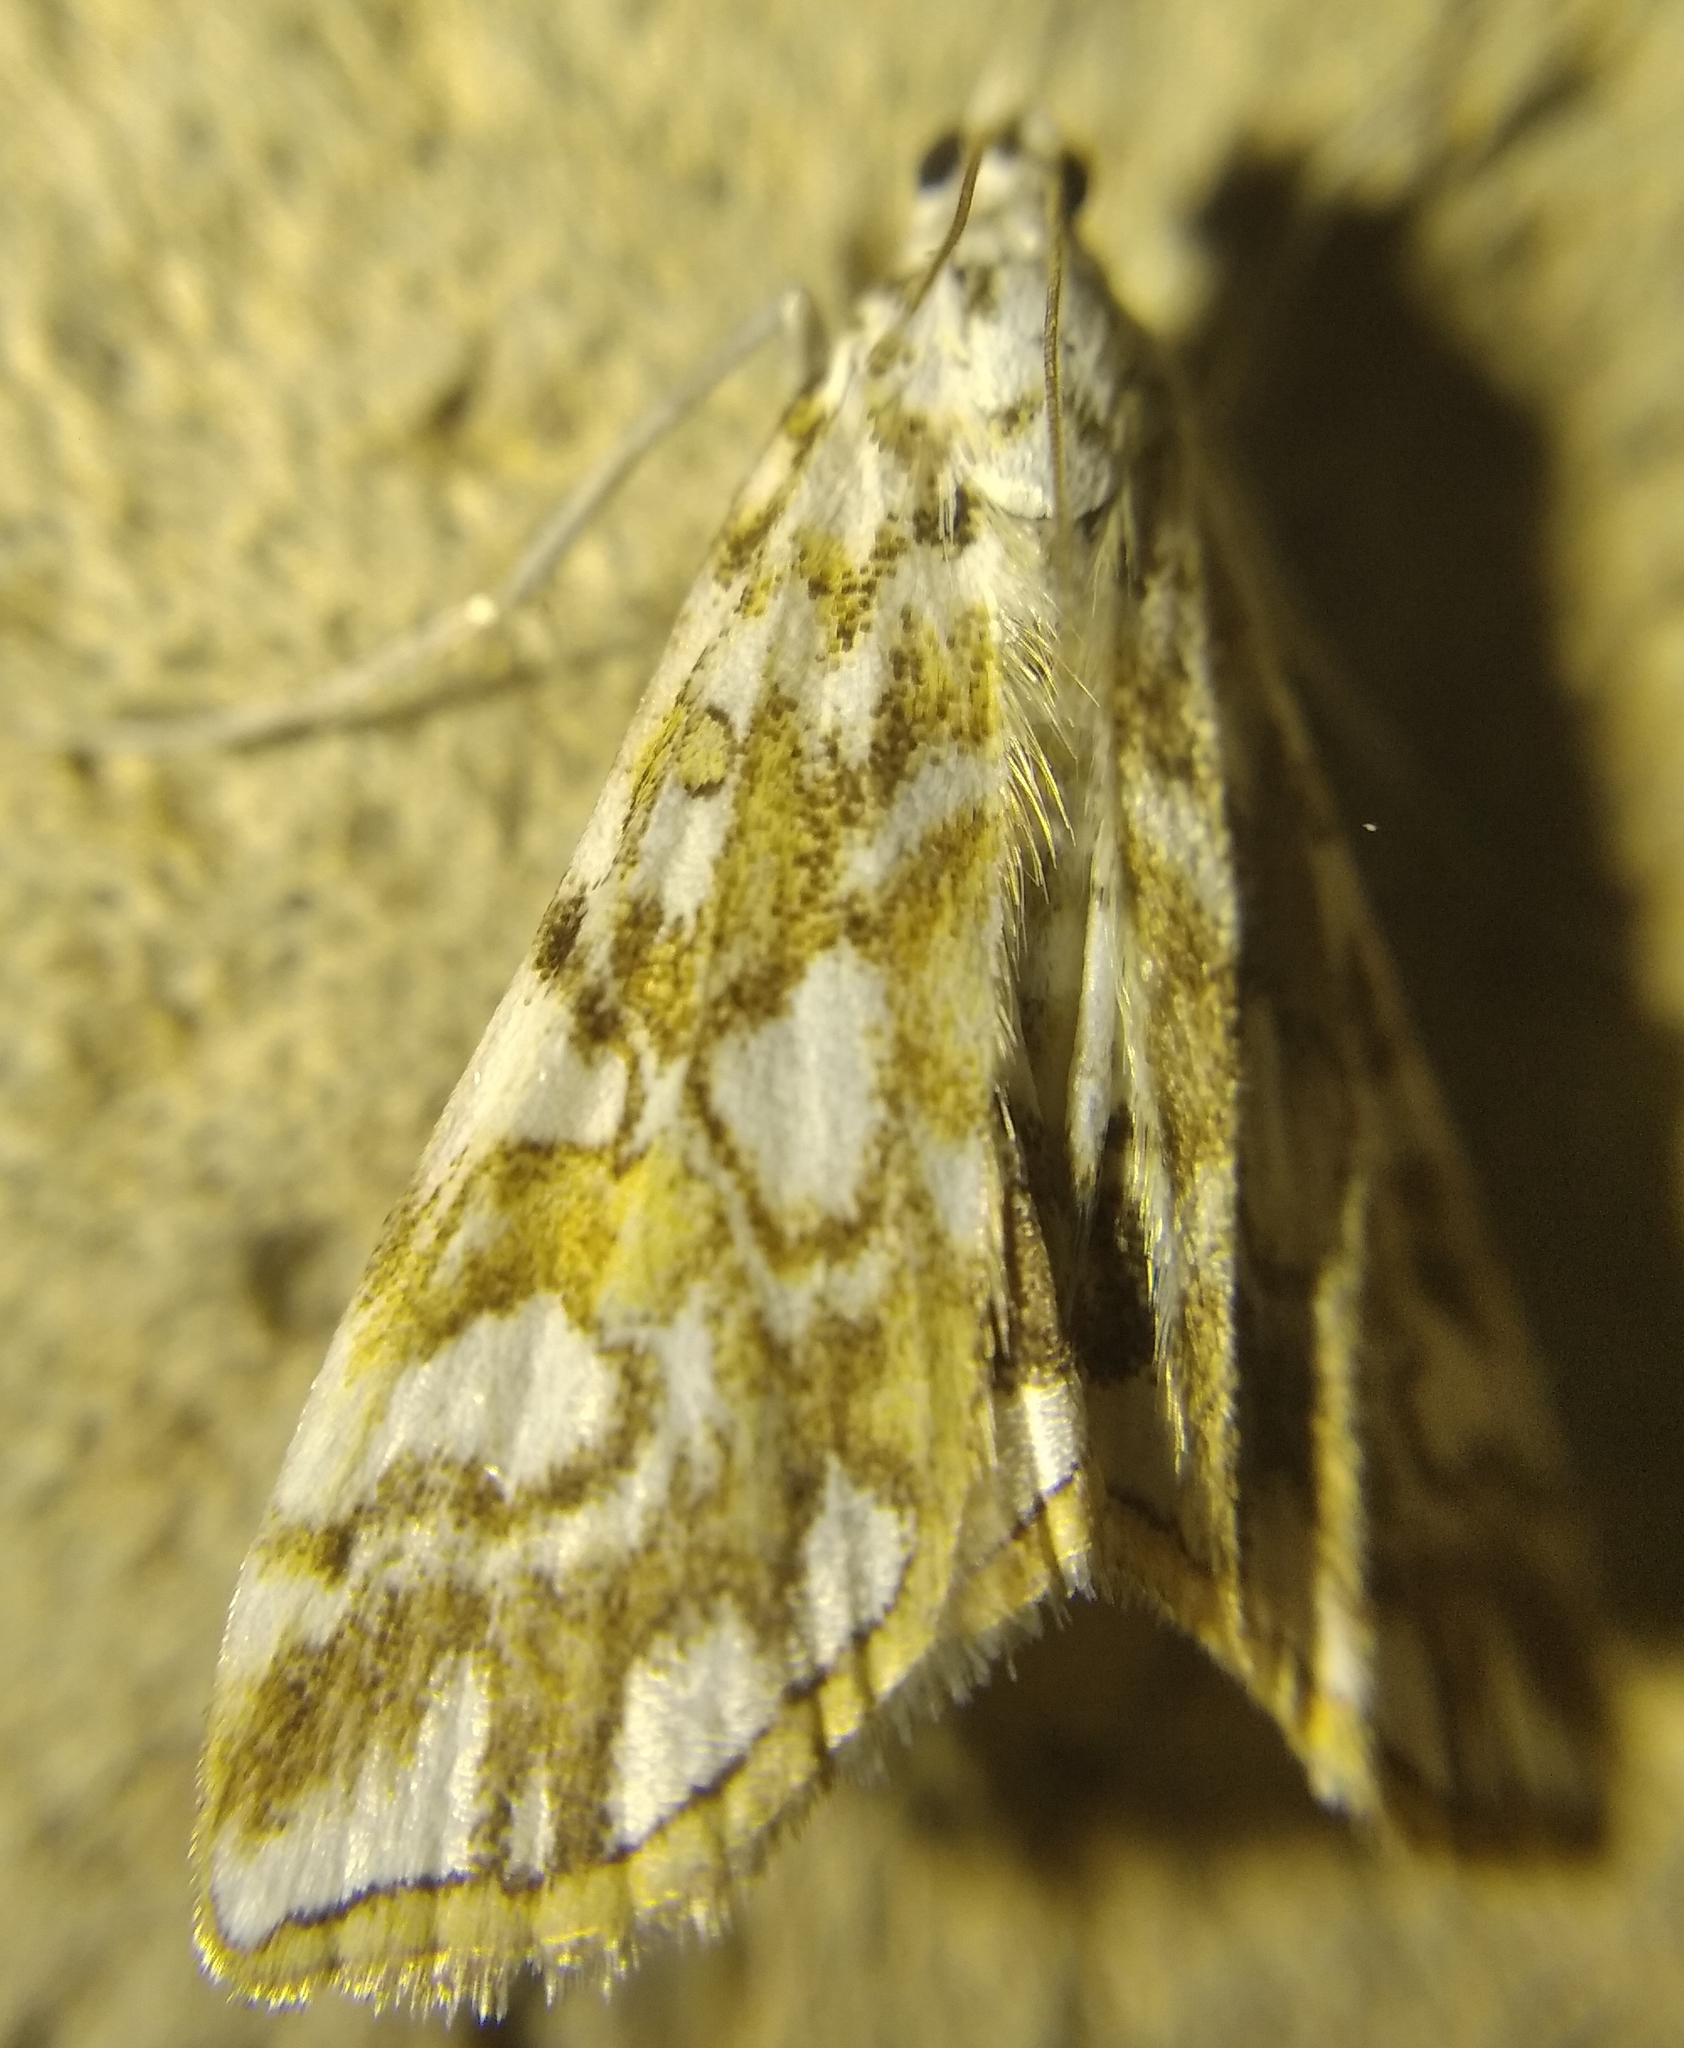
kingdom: Animalia
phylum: Arthropoda
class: Insecta
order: Lepidoptera
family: Crambidae
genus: Elophila
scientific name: Elophila nymphaeata
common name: Brown china-mark
